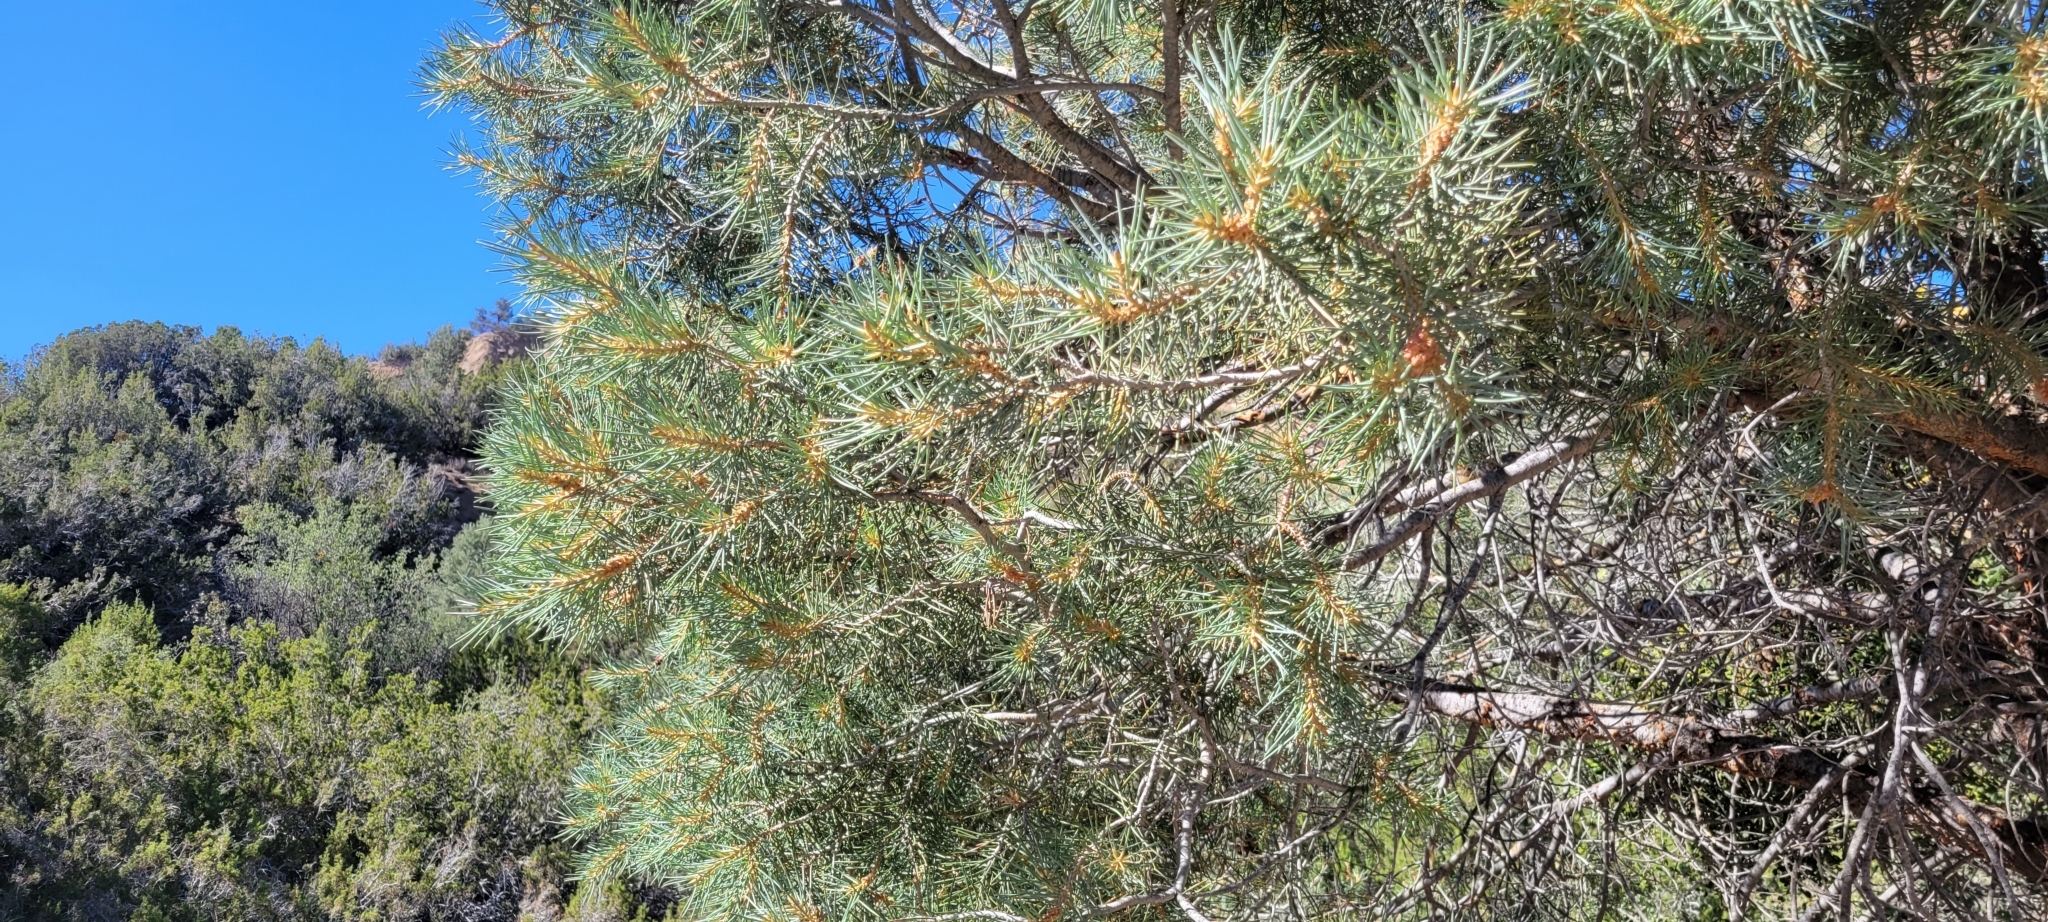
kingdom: Plantae
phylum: Tracheophyta
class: Pinopsida
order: Pinales
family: Pinaceae
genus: Pinus
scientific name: Pinus monophylla
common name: One-leaved nut pine
